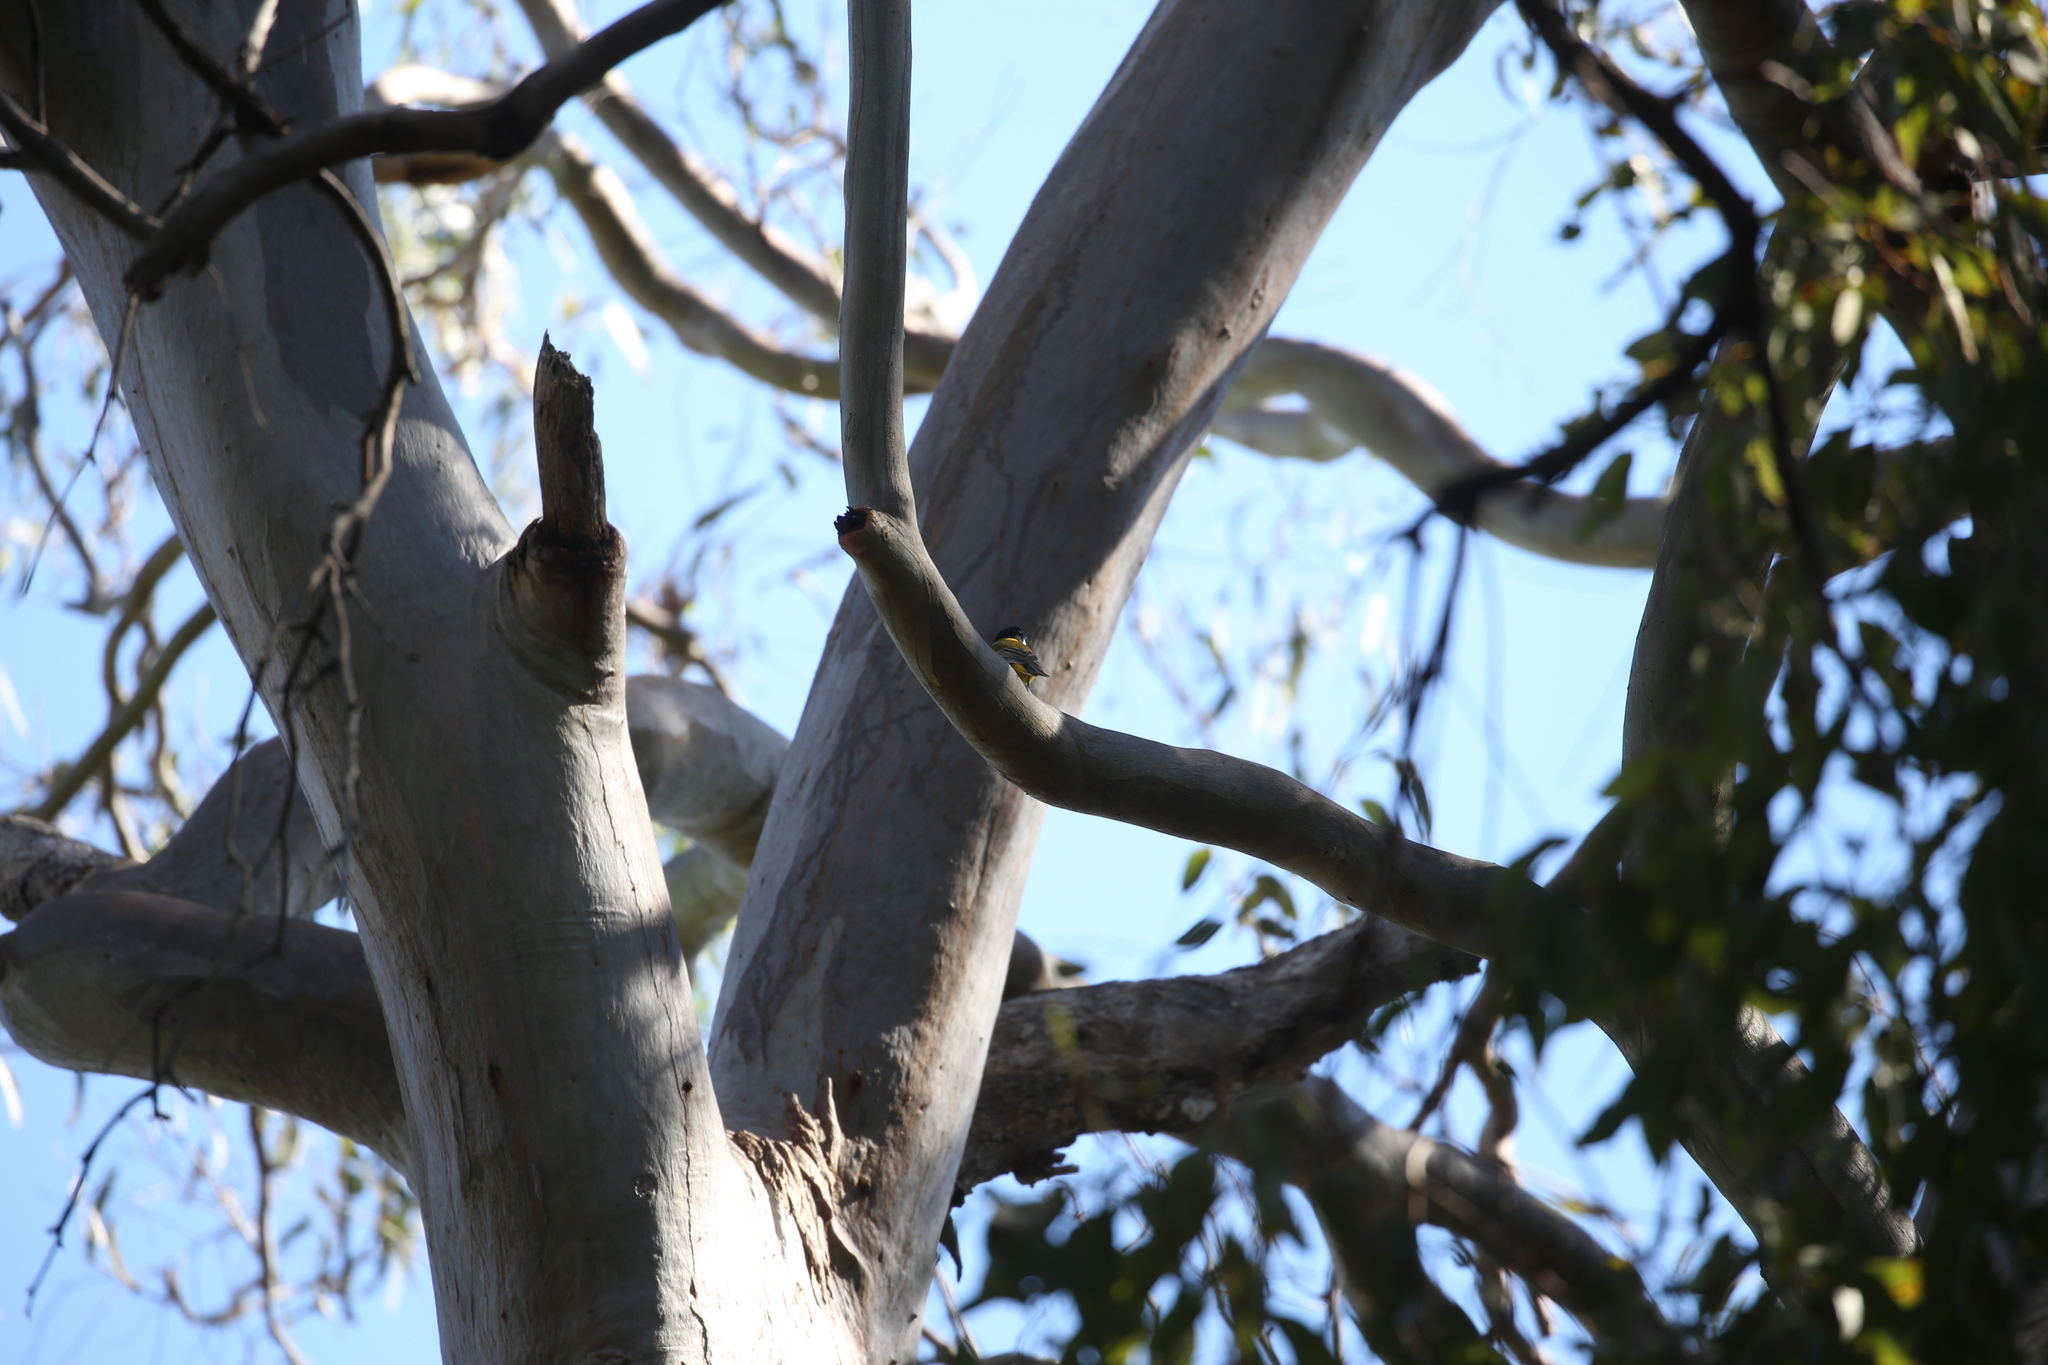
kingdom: Animalia
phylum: Chordata
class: Aves
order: Passeriformes
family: Pachycephalidae
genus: Pachycephala
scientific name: Pachycephala pectoralis
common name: Australian golden whistler
